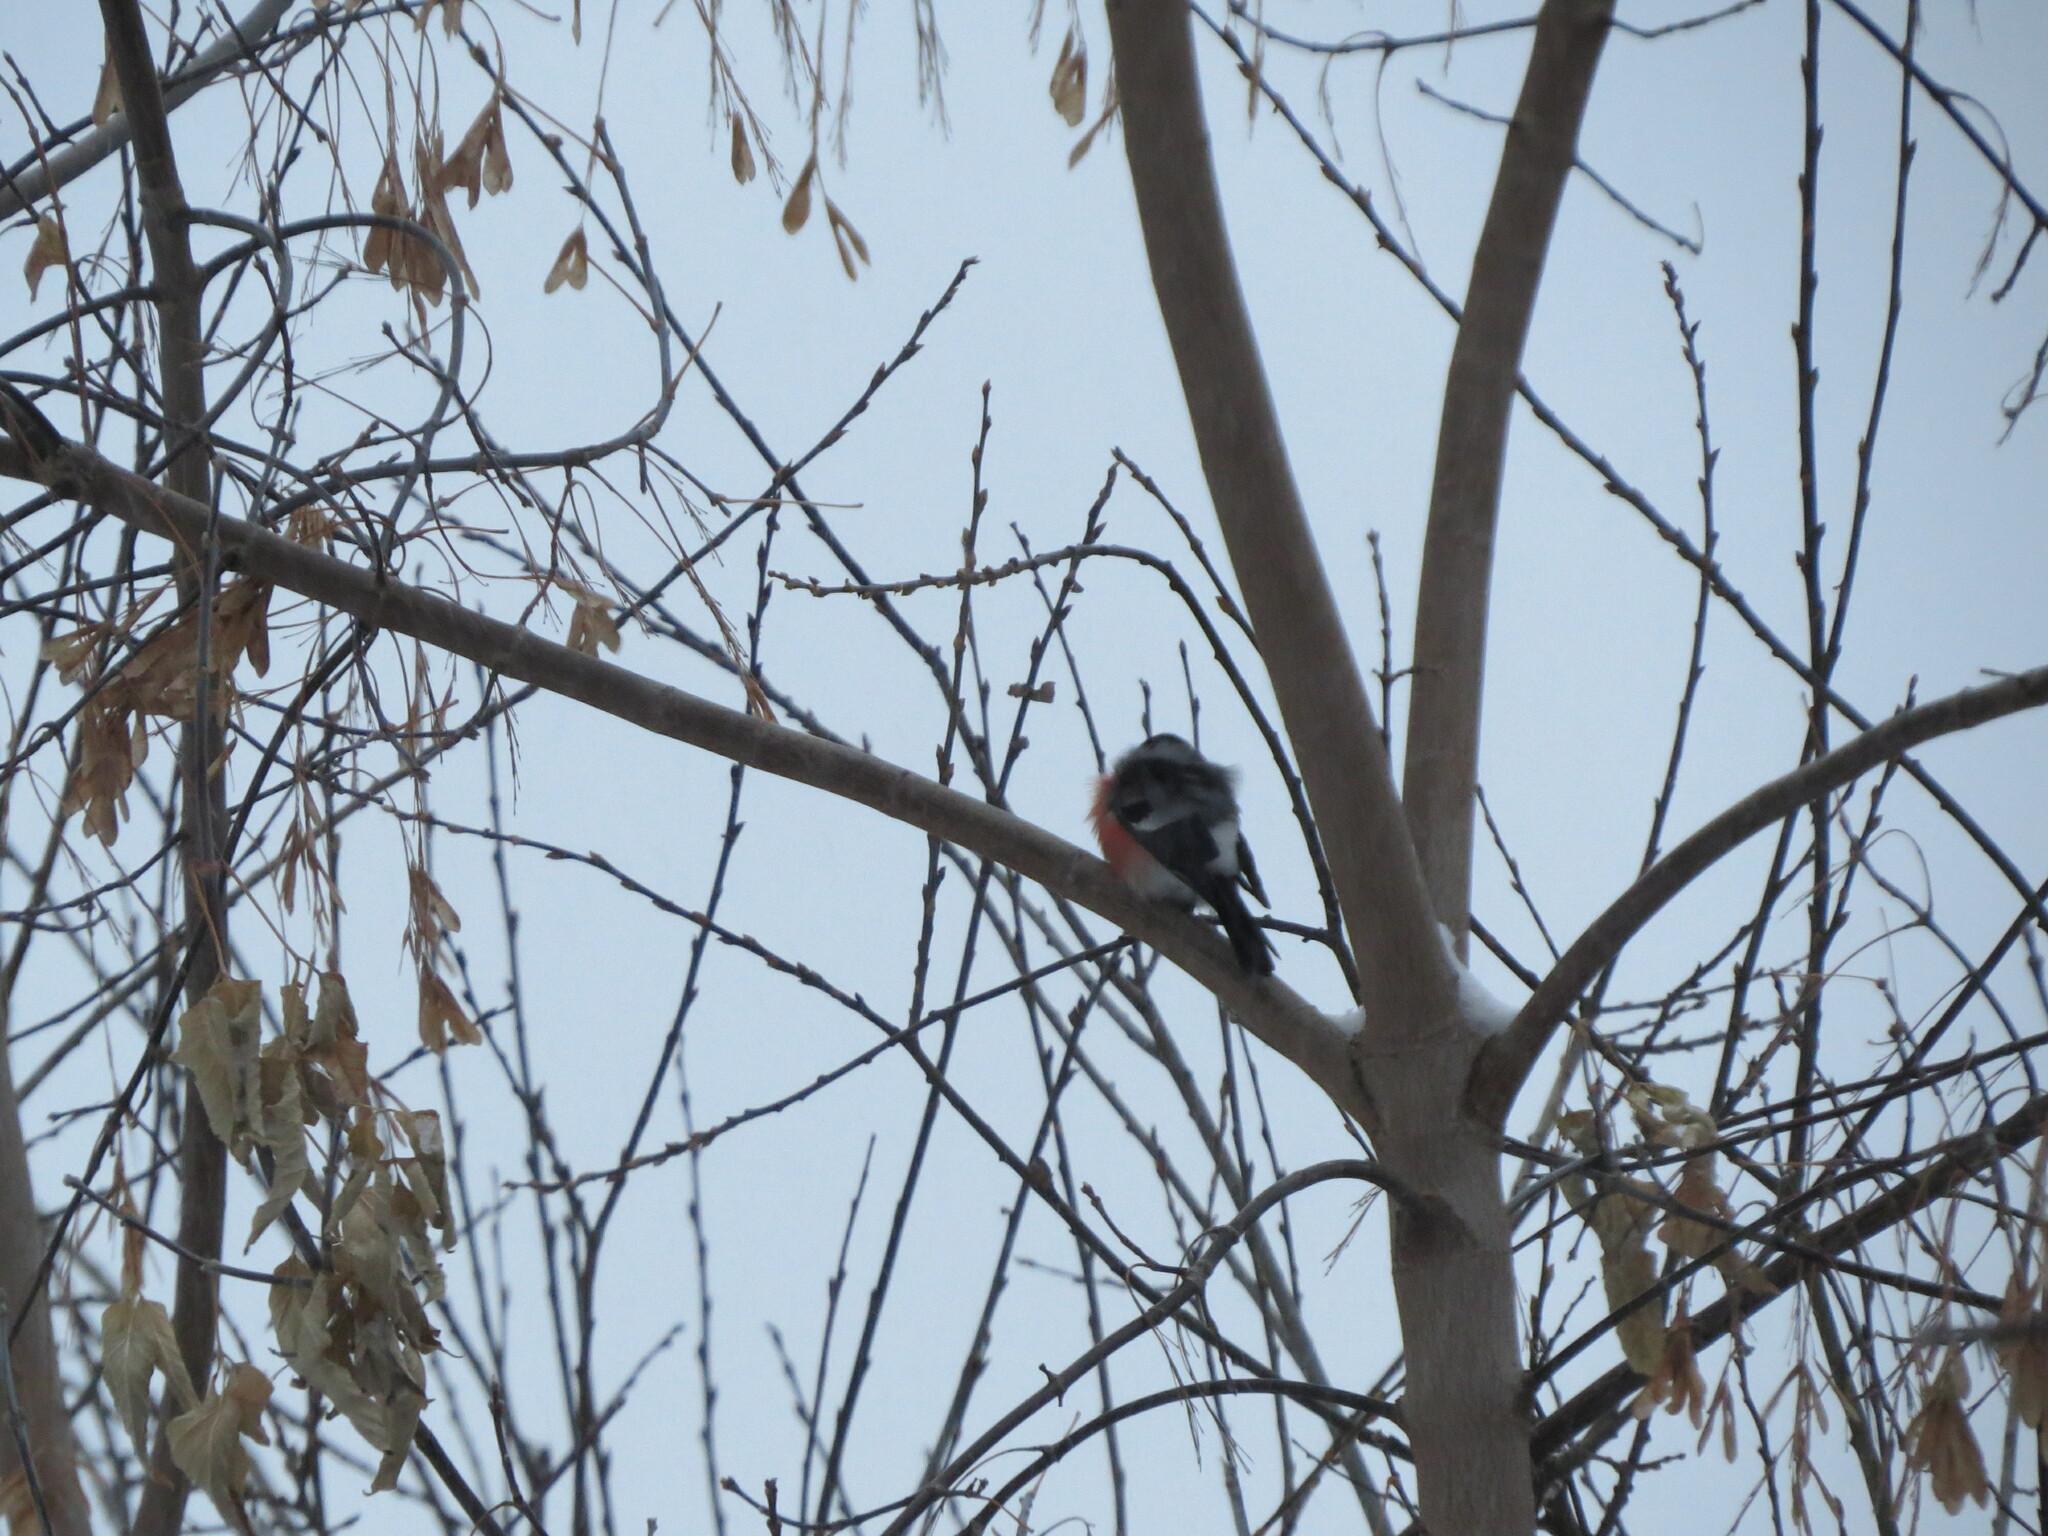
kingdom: Animalia
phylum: Chordata
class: Aves
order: Passeriformes
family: Fringillidae
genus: Pyrrhula
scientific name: Pyrrhula pyrrhula
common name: Eurasian bullfinch
